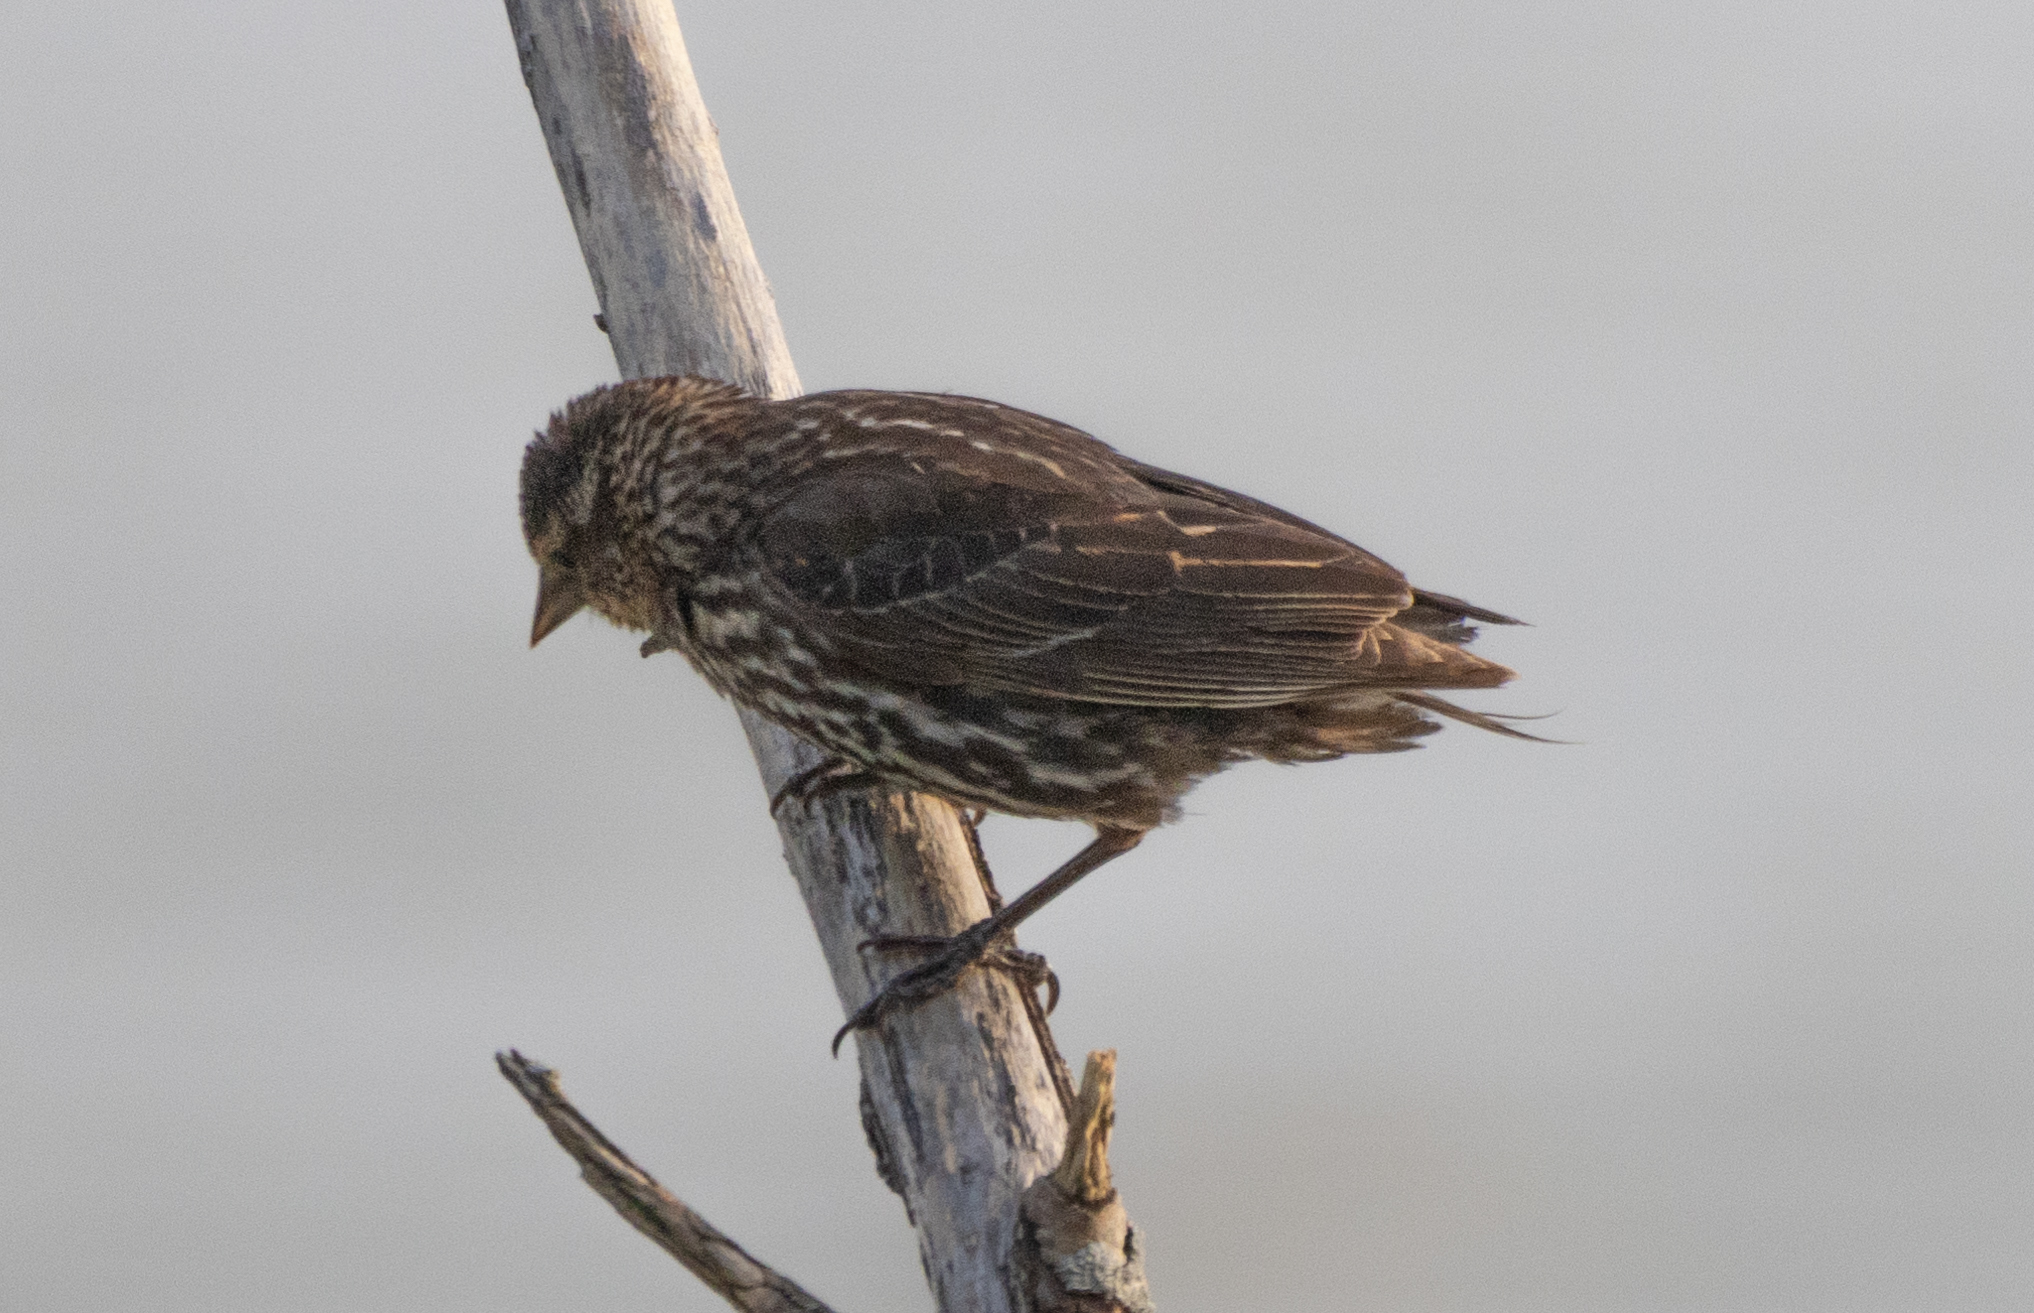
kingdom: Animalia
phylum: Chordata
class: Aves
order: Passeriformes
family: Icteridae
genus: Agelaius
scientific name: Agelaius phoeniceus
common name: Red-winged blackbird
